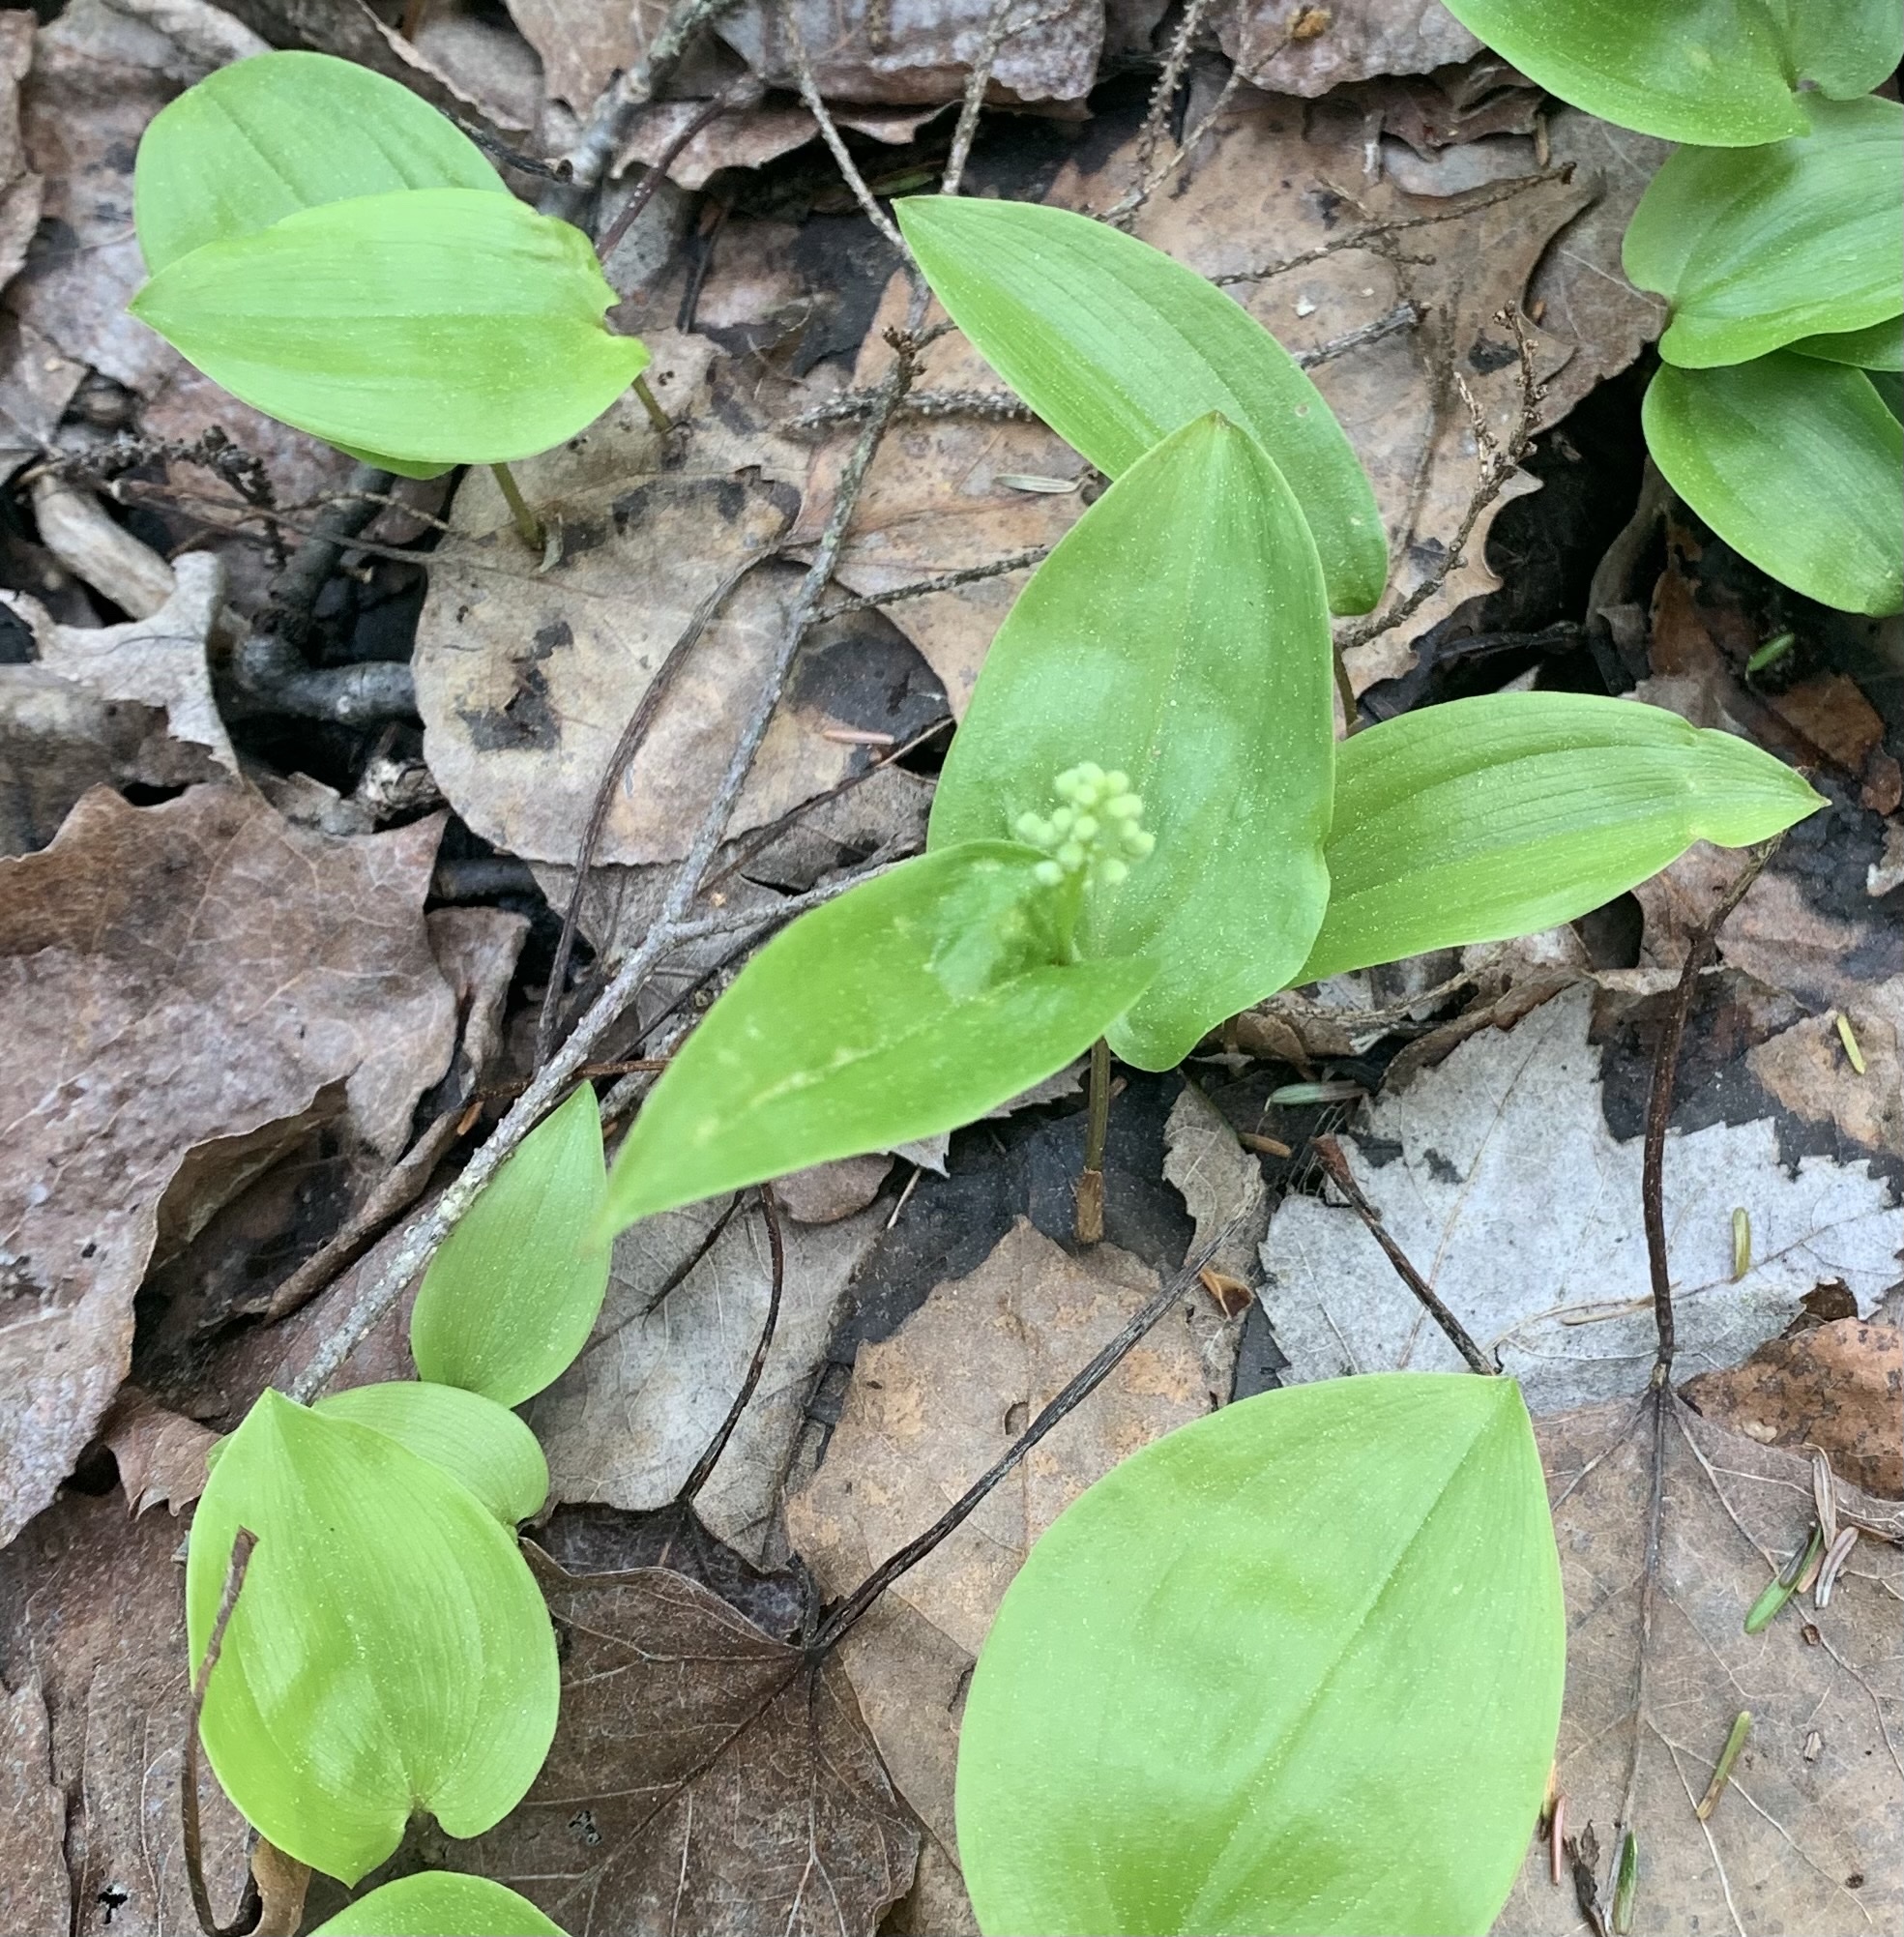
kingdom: Plantae
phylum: Tracheophyta
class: Liliopsida
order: Asparagales
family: Asparagaceae
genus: Maianthemum
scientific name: Maianthemum canadense
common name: False lily-of-the-valley
